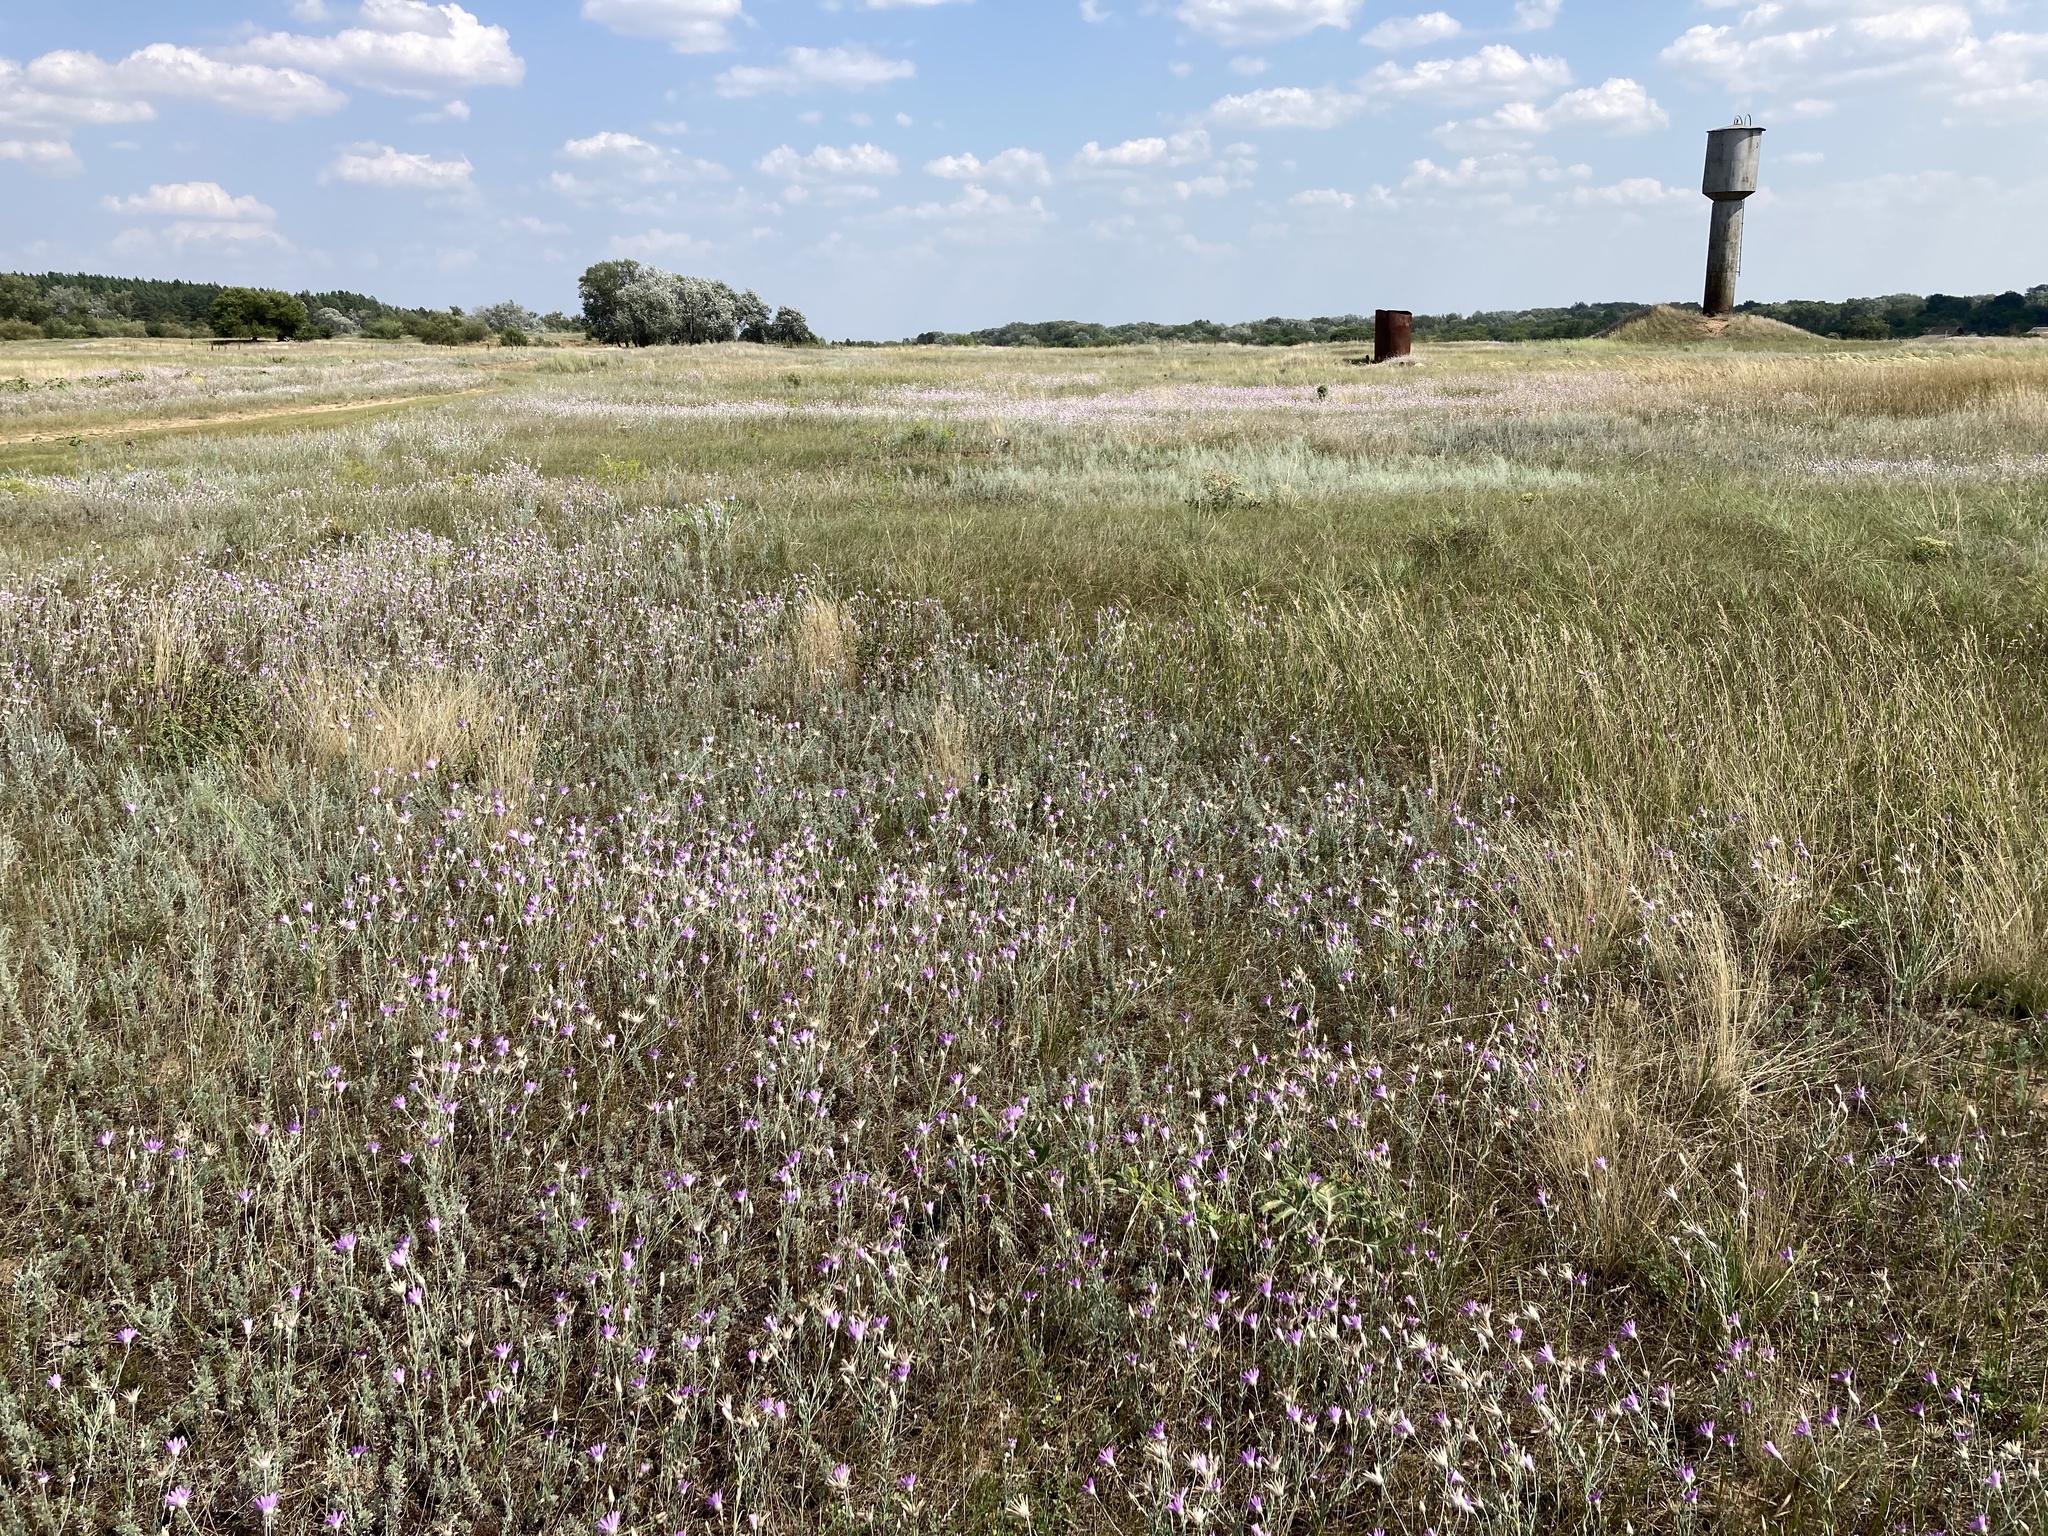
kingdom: Plantae
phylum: Tracheophyta
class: Magnoliopsida
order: Asterales
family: Asteraceae
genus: Xeranthemum
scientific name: Xeranthemum annuum
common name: Immortelle
